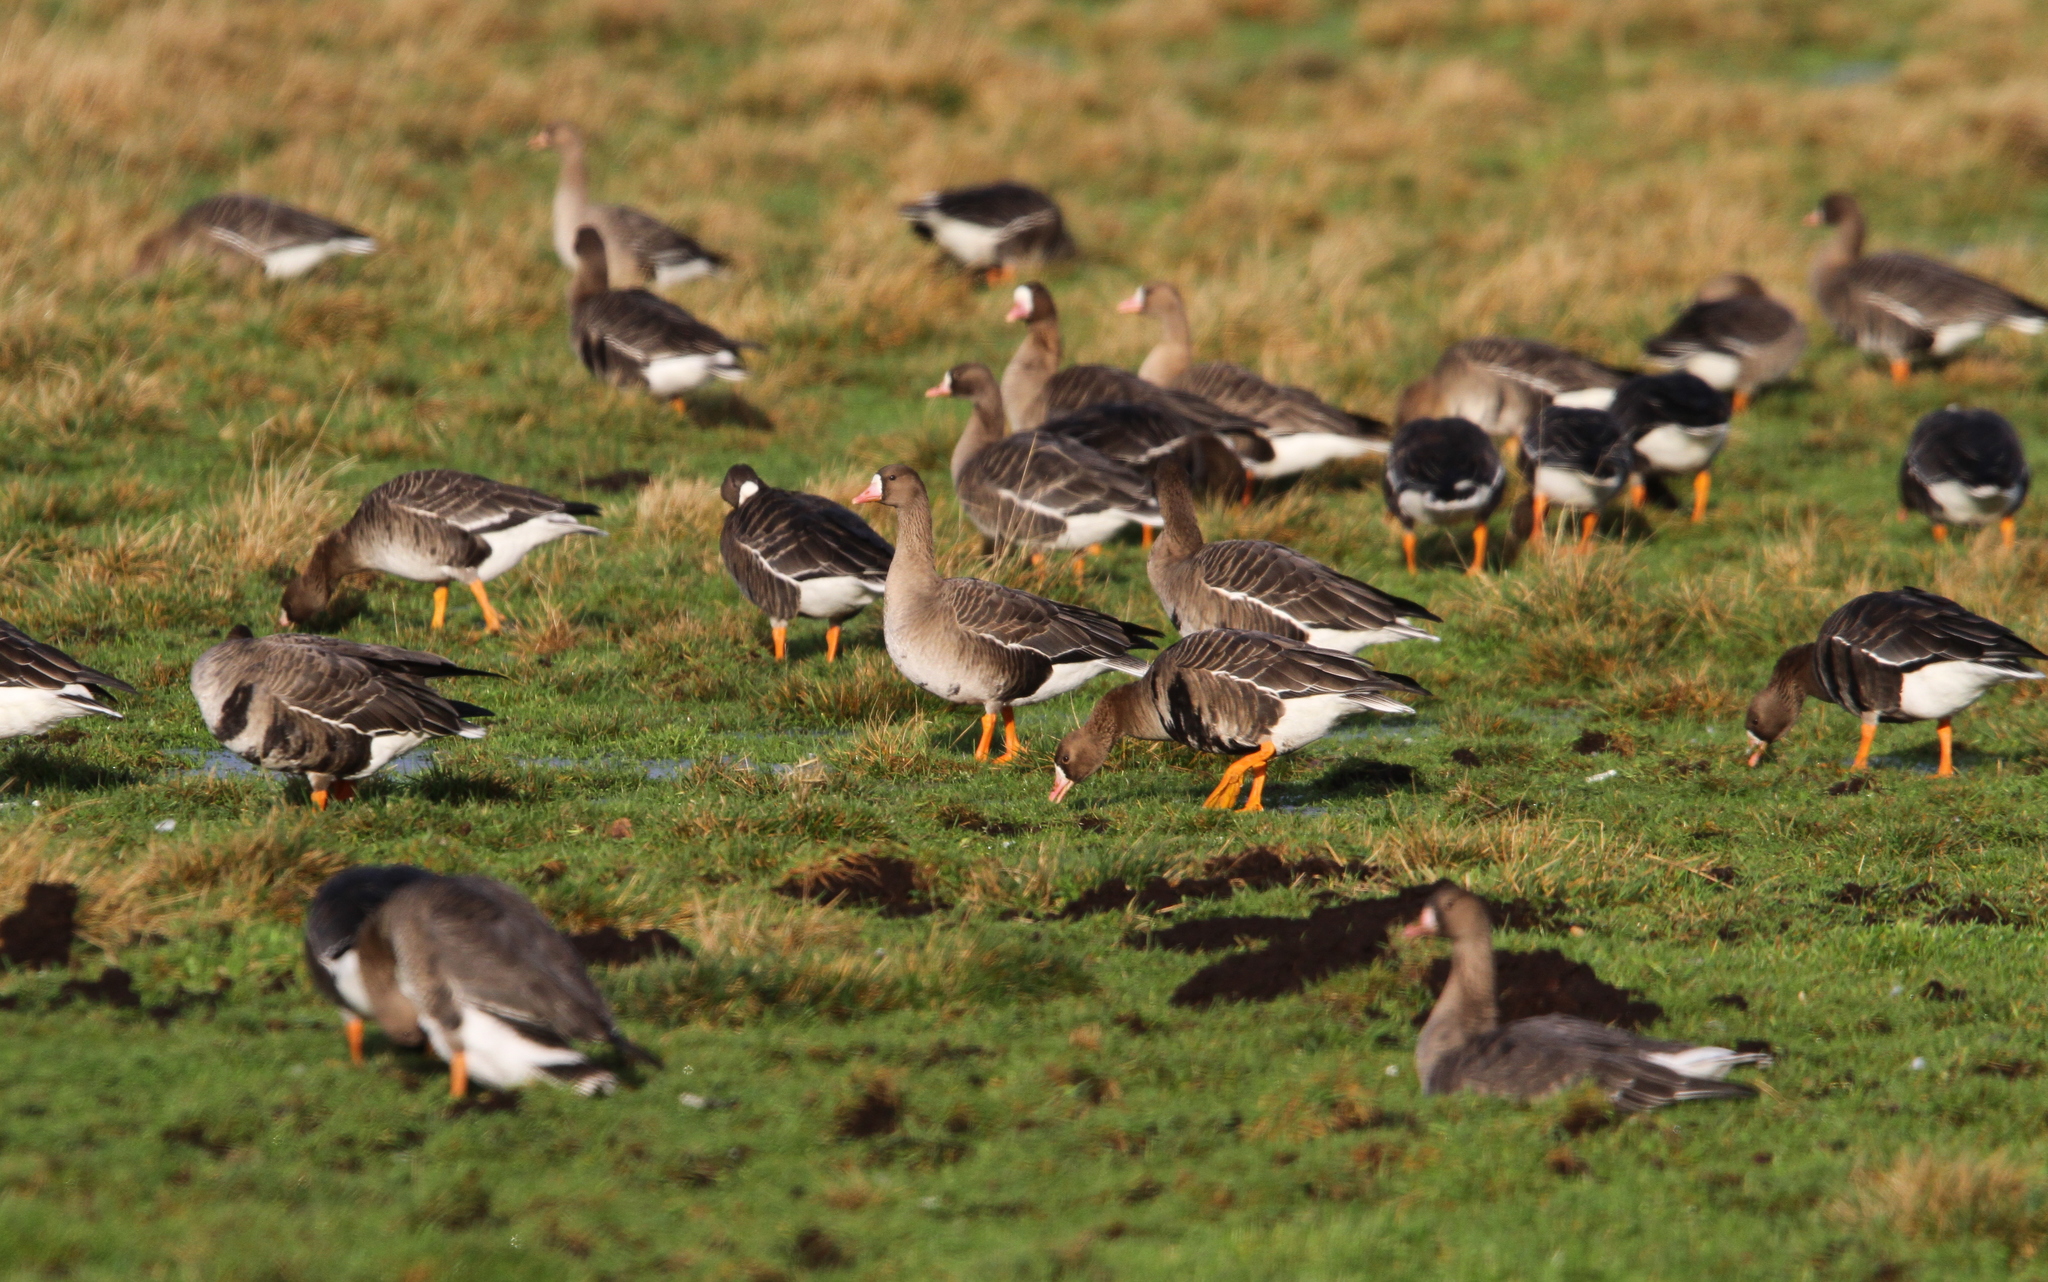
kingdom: Animalia
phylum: Chordata
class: Aves
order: Anseriformes
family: Anatidae
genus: Anser
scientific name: Anser albifrons
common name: Greater white-fronted goose
